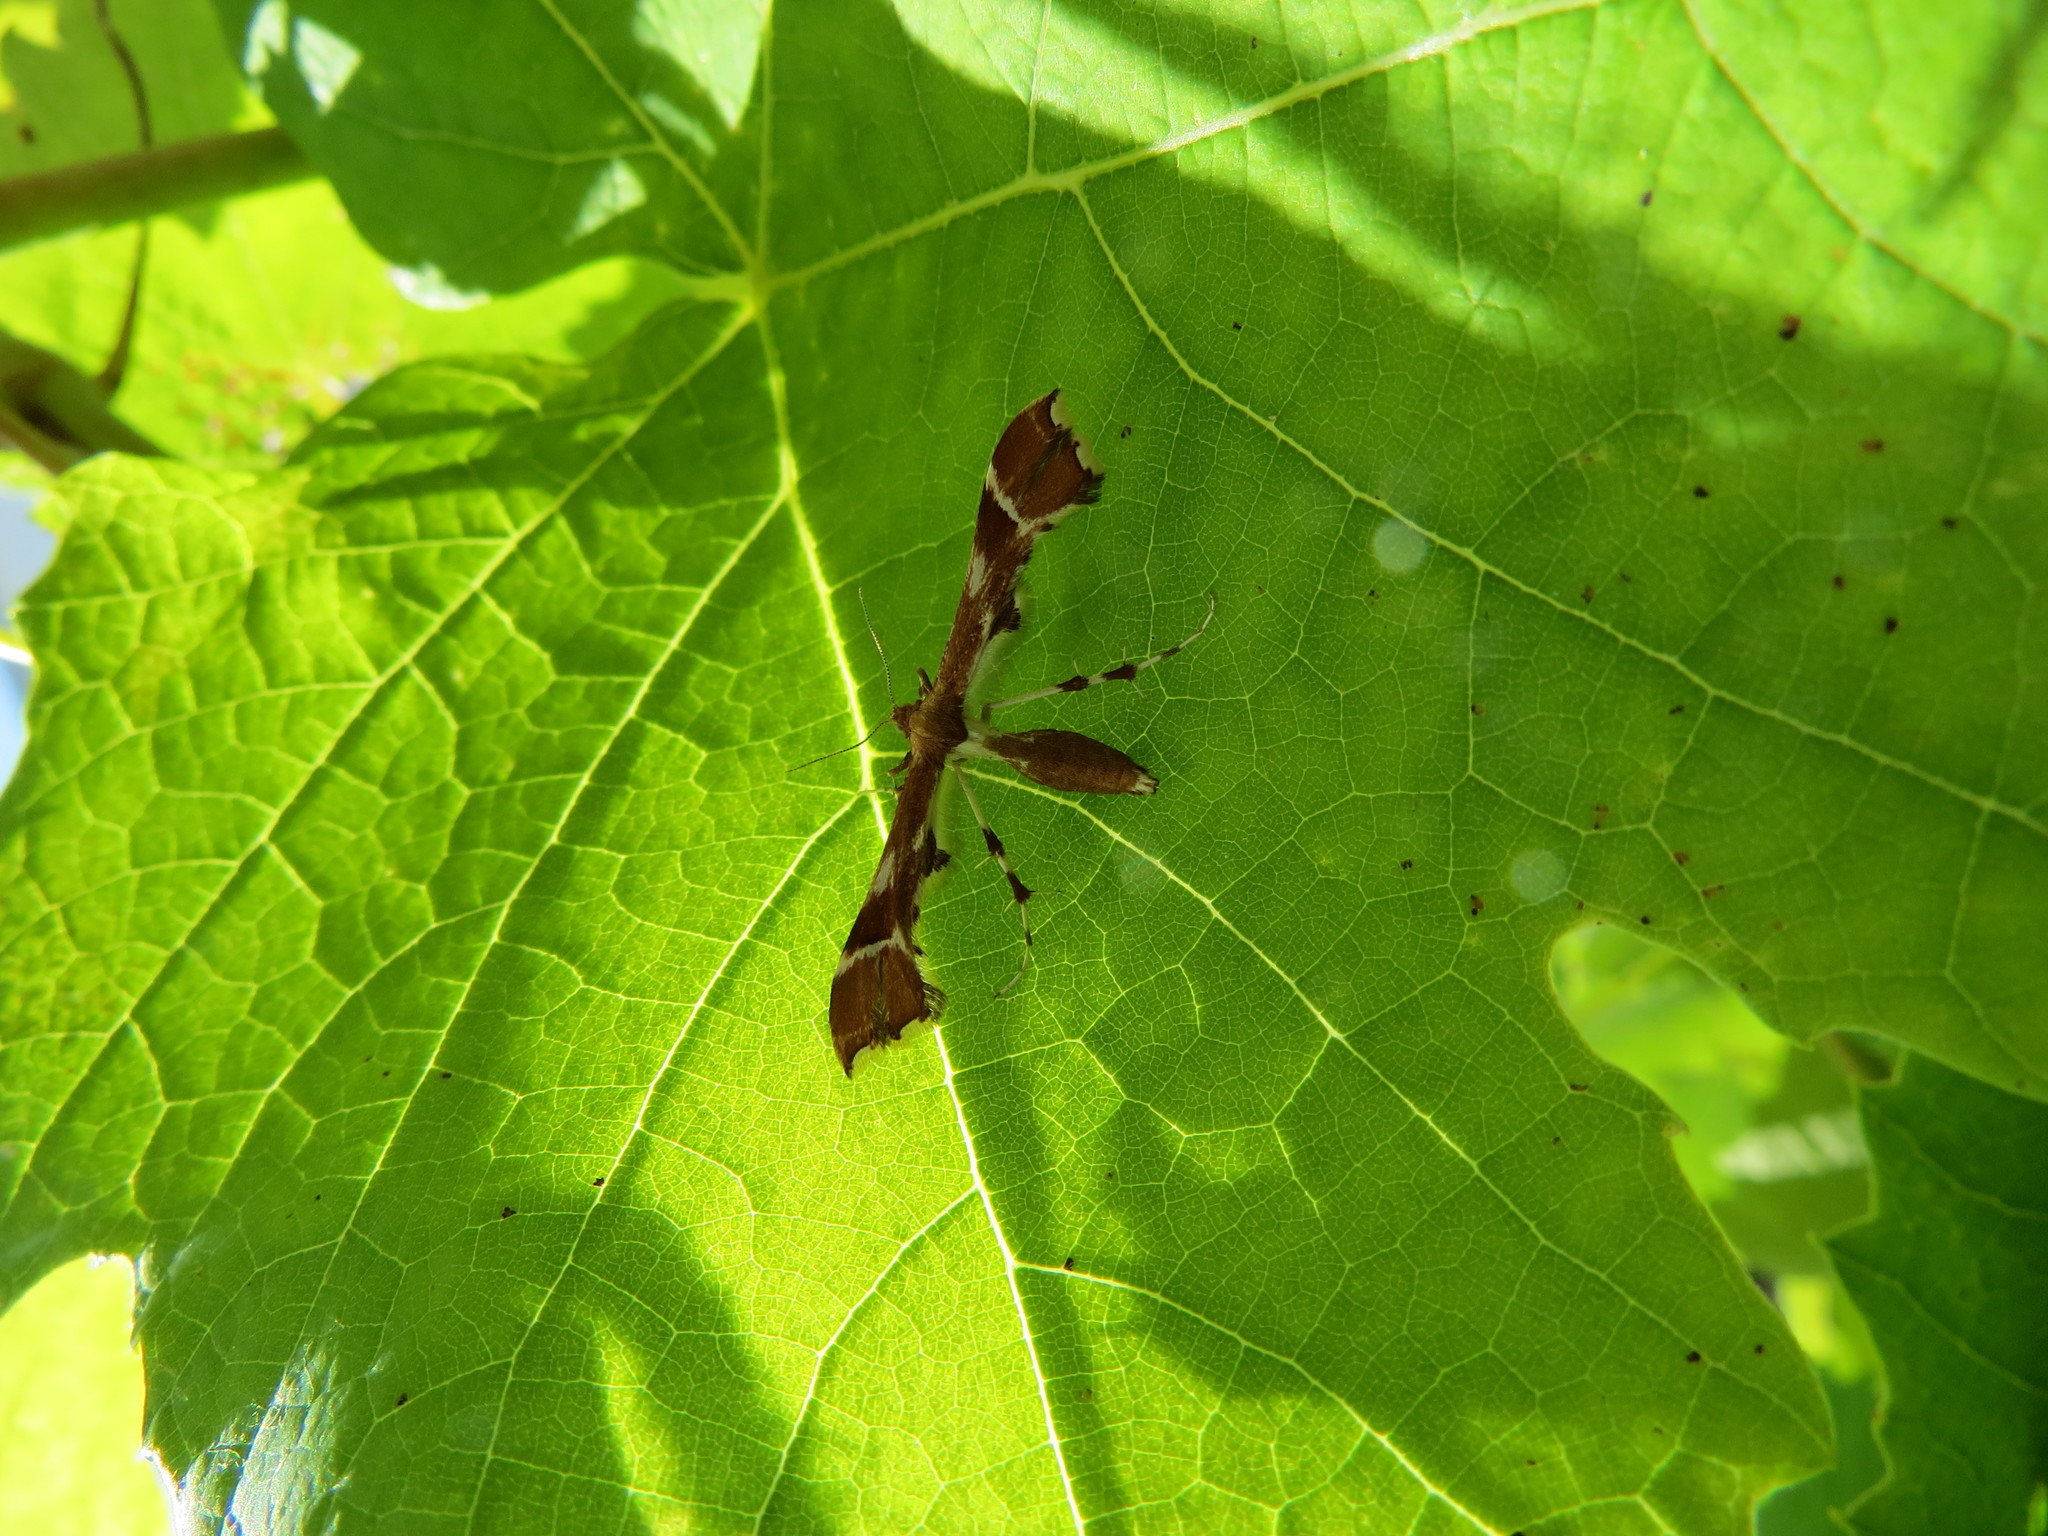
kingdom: Animalia
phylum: Arthropoda
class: Insecta
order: Lepidoptera
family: Pterophoridae
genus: Cnaemidophorus
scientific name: Cnaemidophorus rhododactyla
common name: Rose plume
